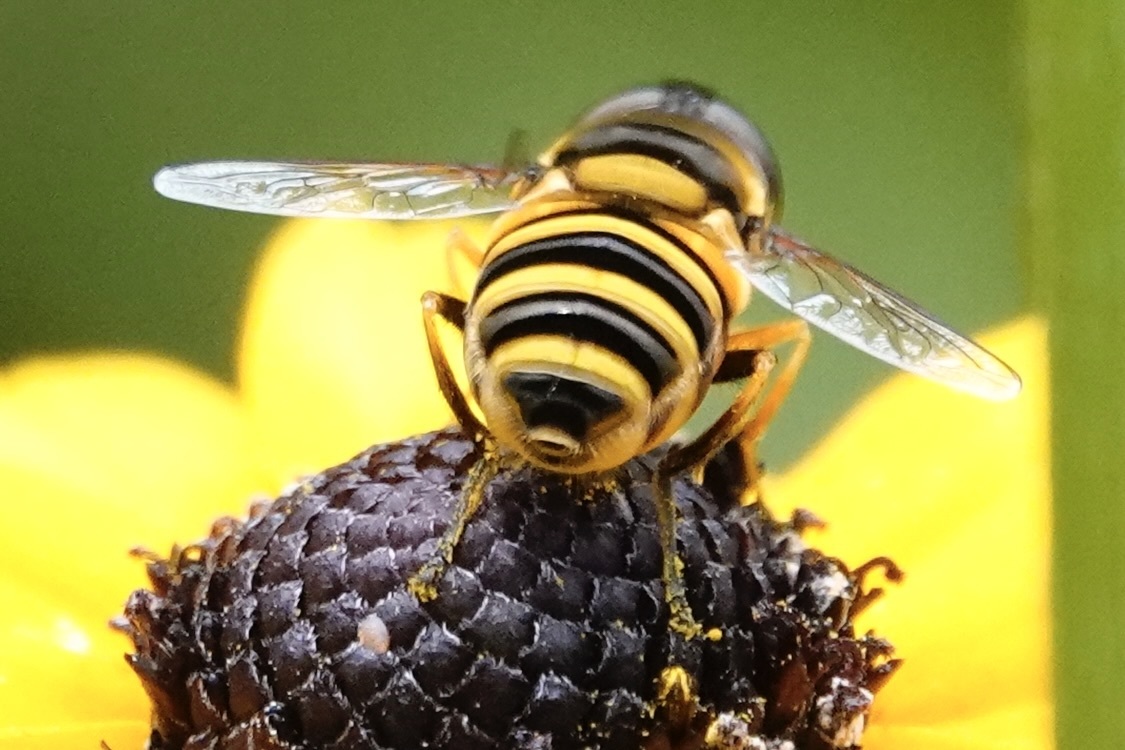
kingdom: Animalia
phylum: Arthropoda
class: Insecta
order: Diptera
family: Syrphidae
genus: Eristalis
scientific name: Eristalis transversa
